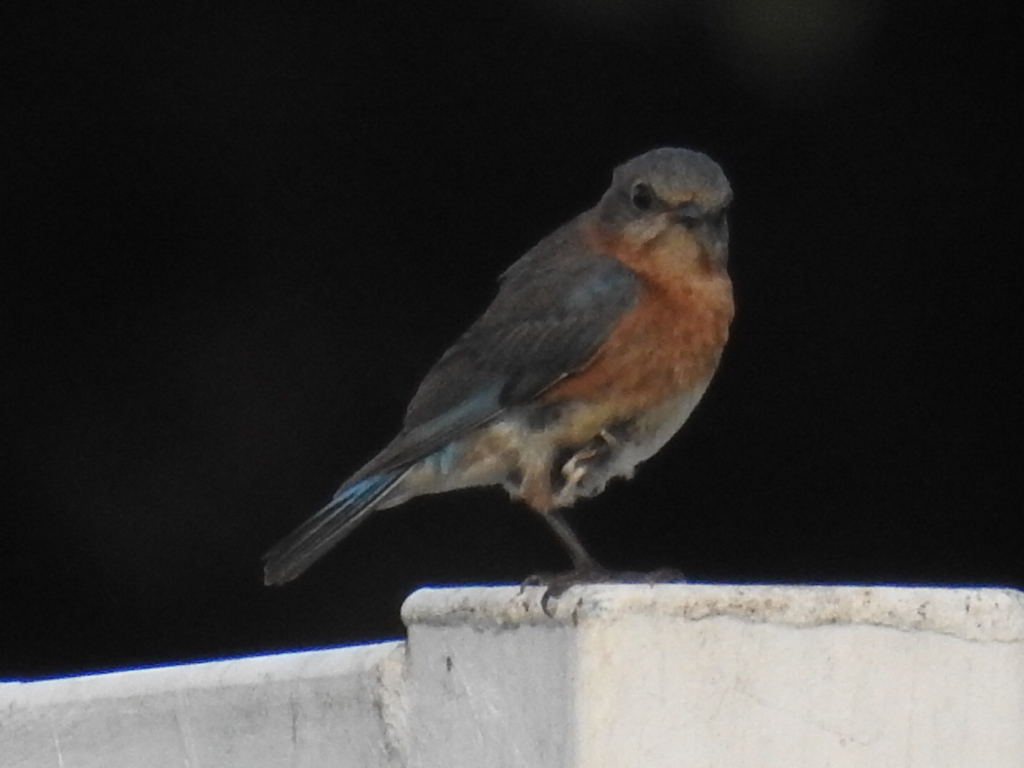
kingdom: Animalia
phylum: Chordata
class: Aves
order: Passeriformes
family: Turdidae
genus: Sialia
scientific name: Sialia sialis
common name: Eastern bluebird
